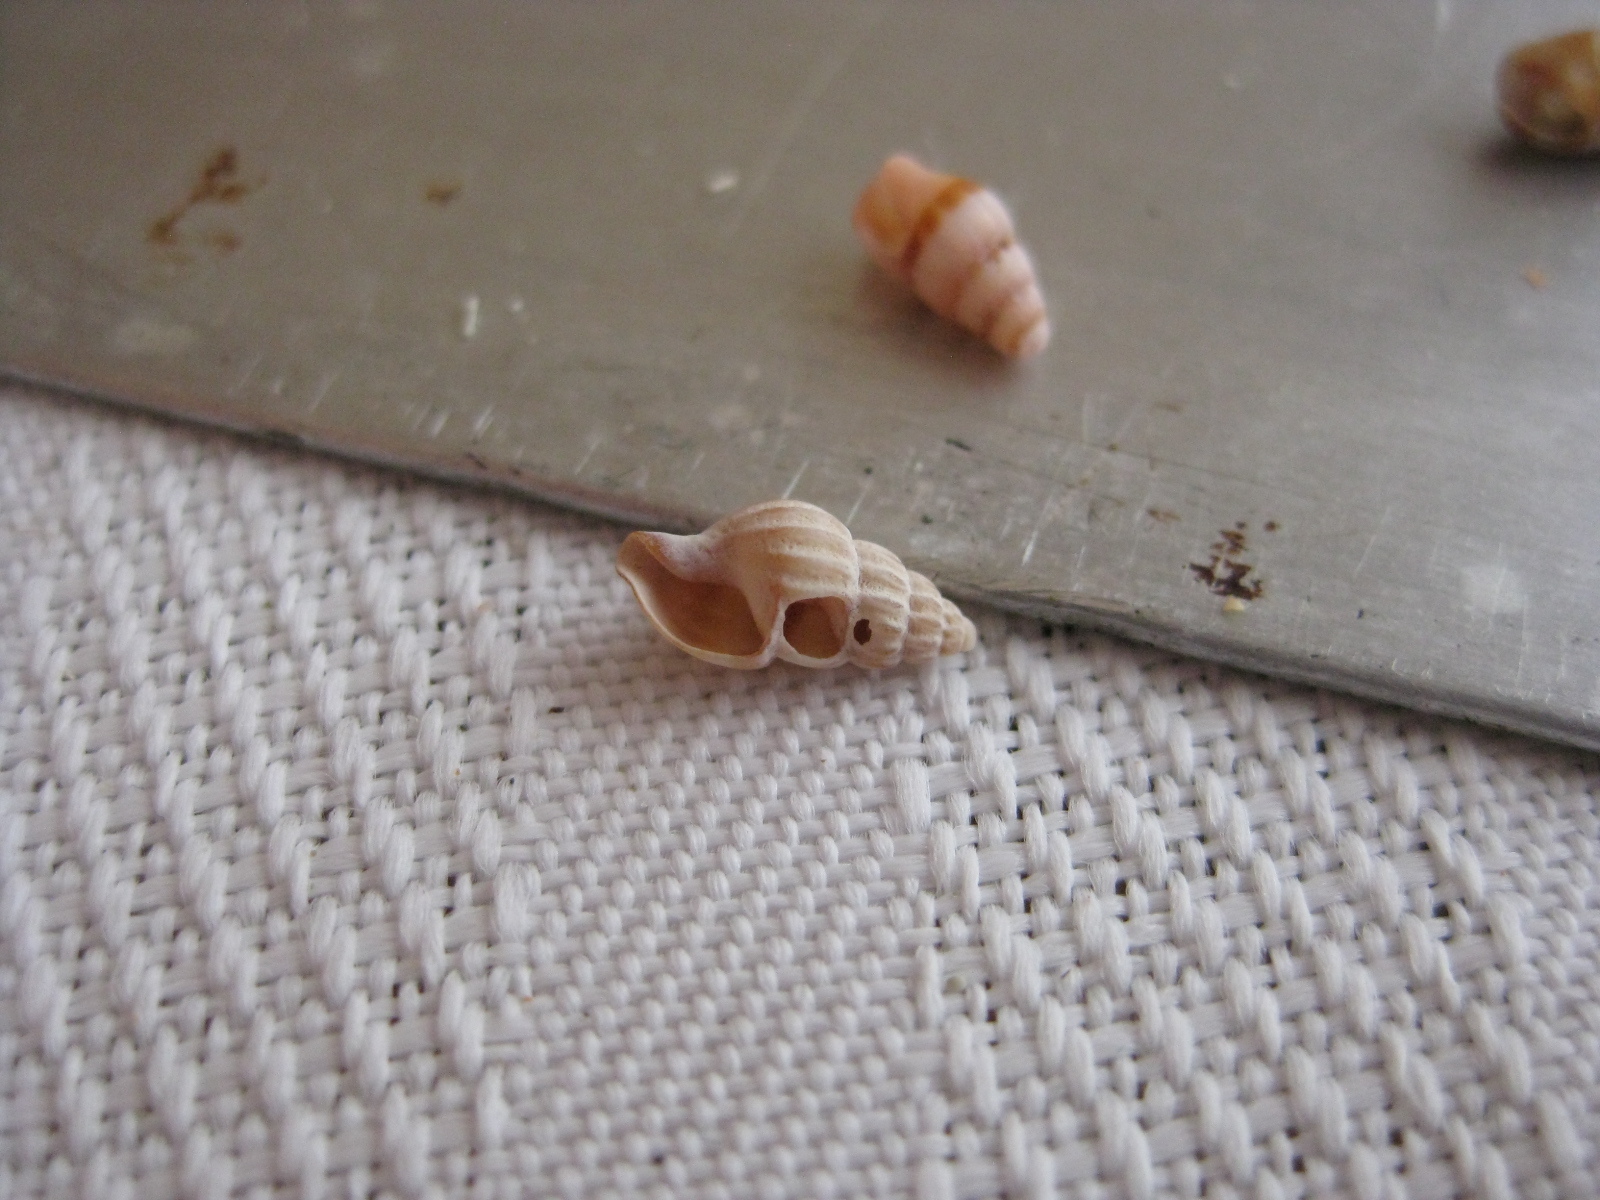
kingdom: Animalia
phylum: Mollusca
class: Gastropoda
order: Neogastropoda
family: Mangeliidae
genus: Neoguraleus
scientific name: Neoguraleus
